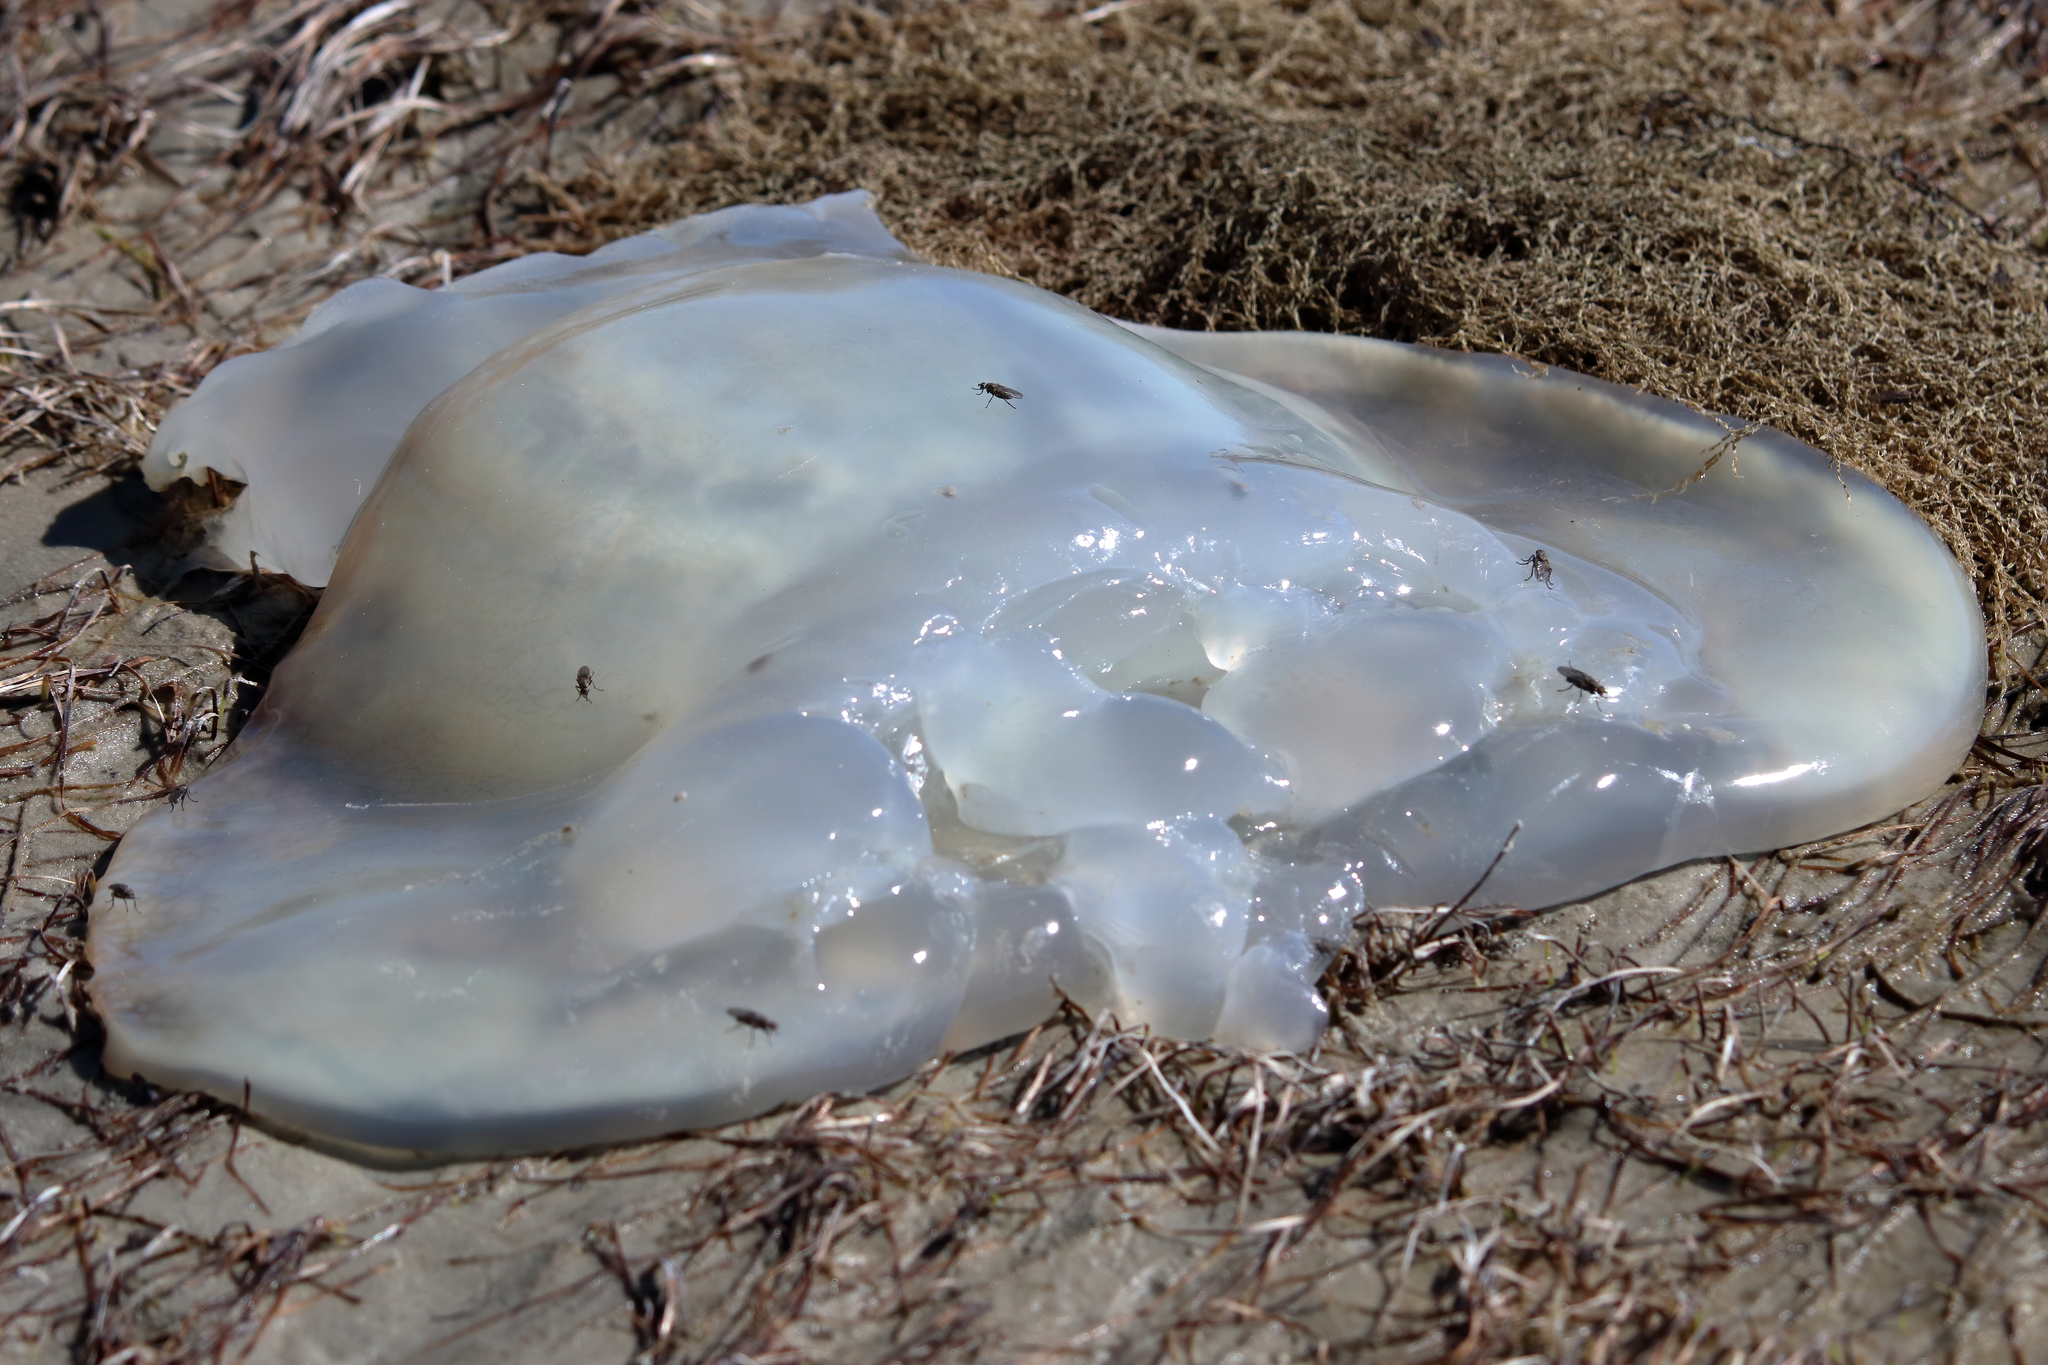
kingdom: Animalia
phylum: Cnidaria
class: Scyphozoa
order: Rhizostomeae
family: Stomolophidae
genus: Stomolophus
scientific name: Stomolophus meleagris
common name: Cabbagehead
